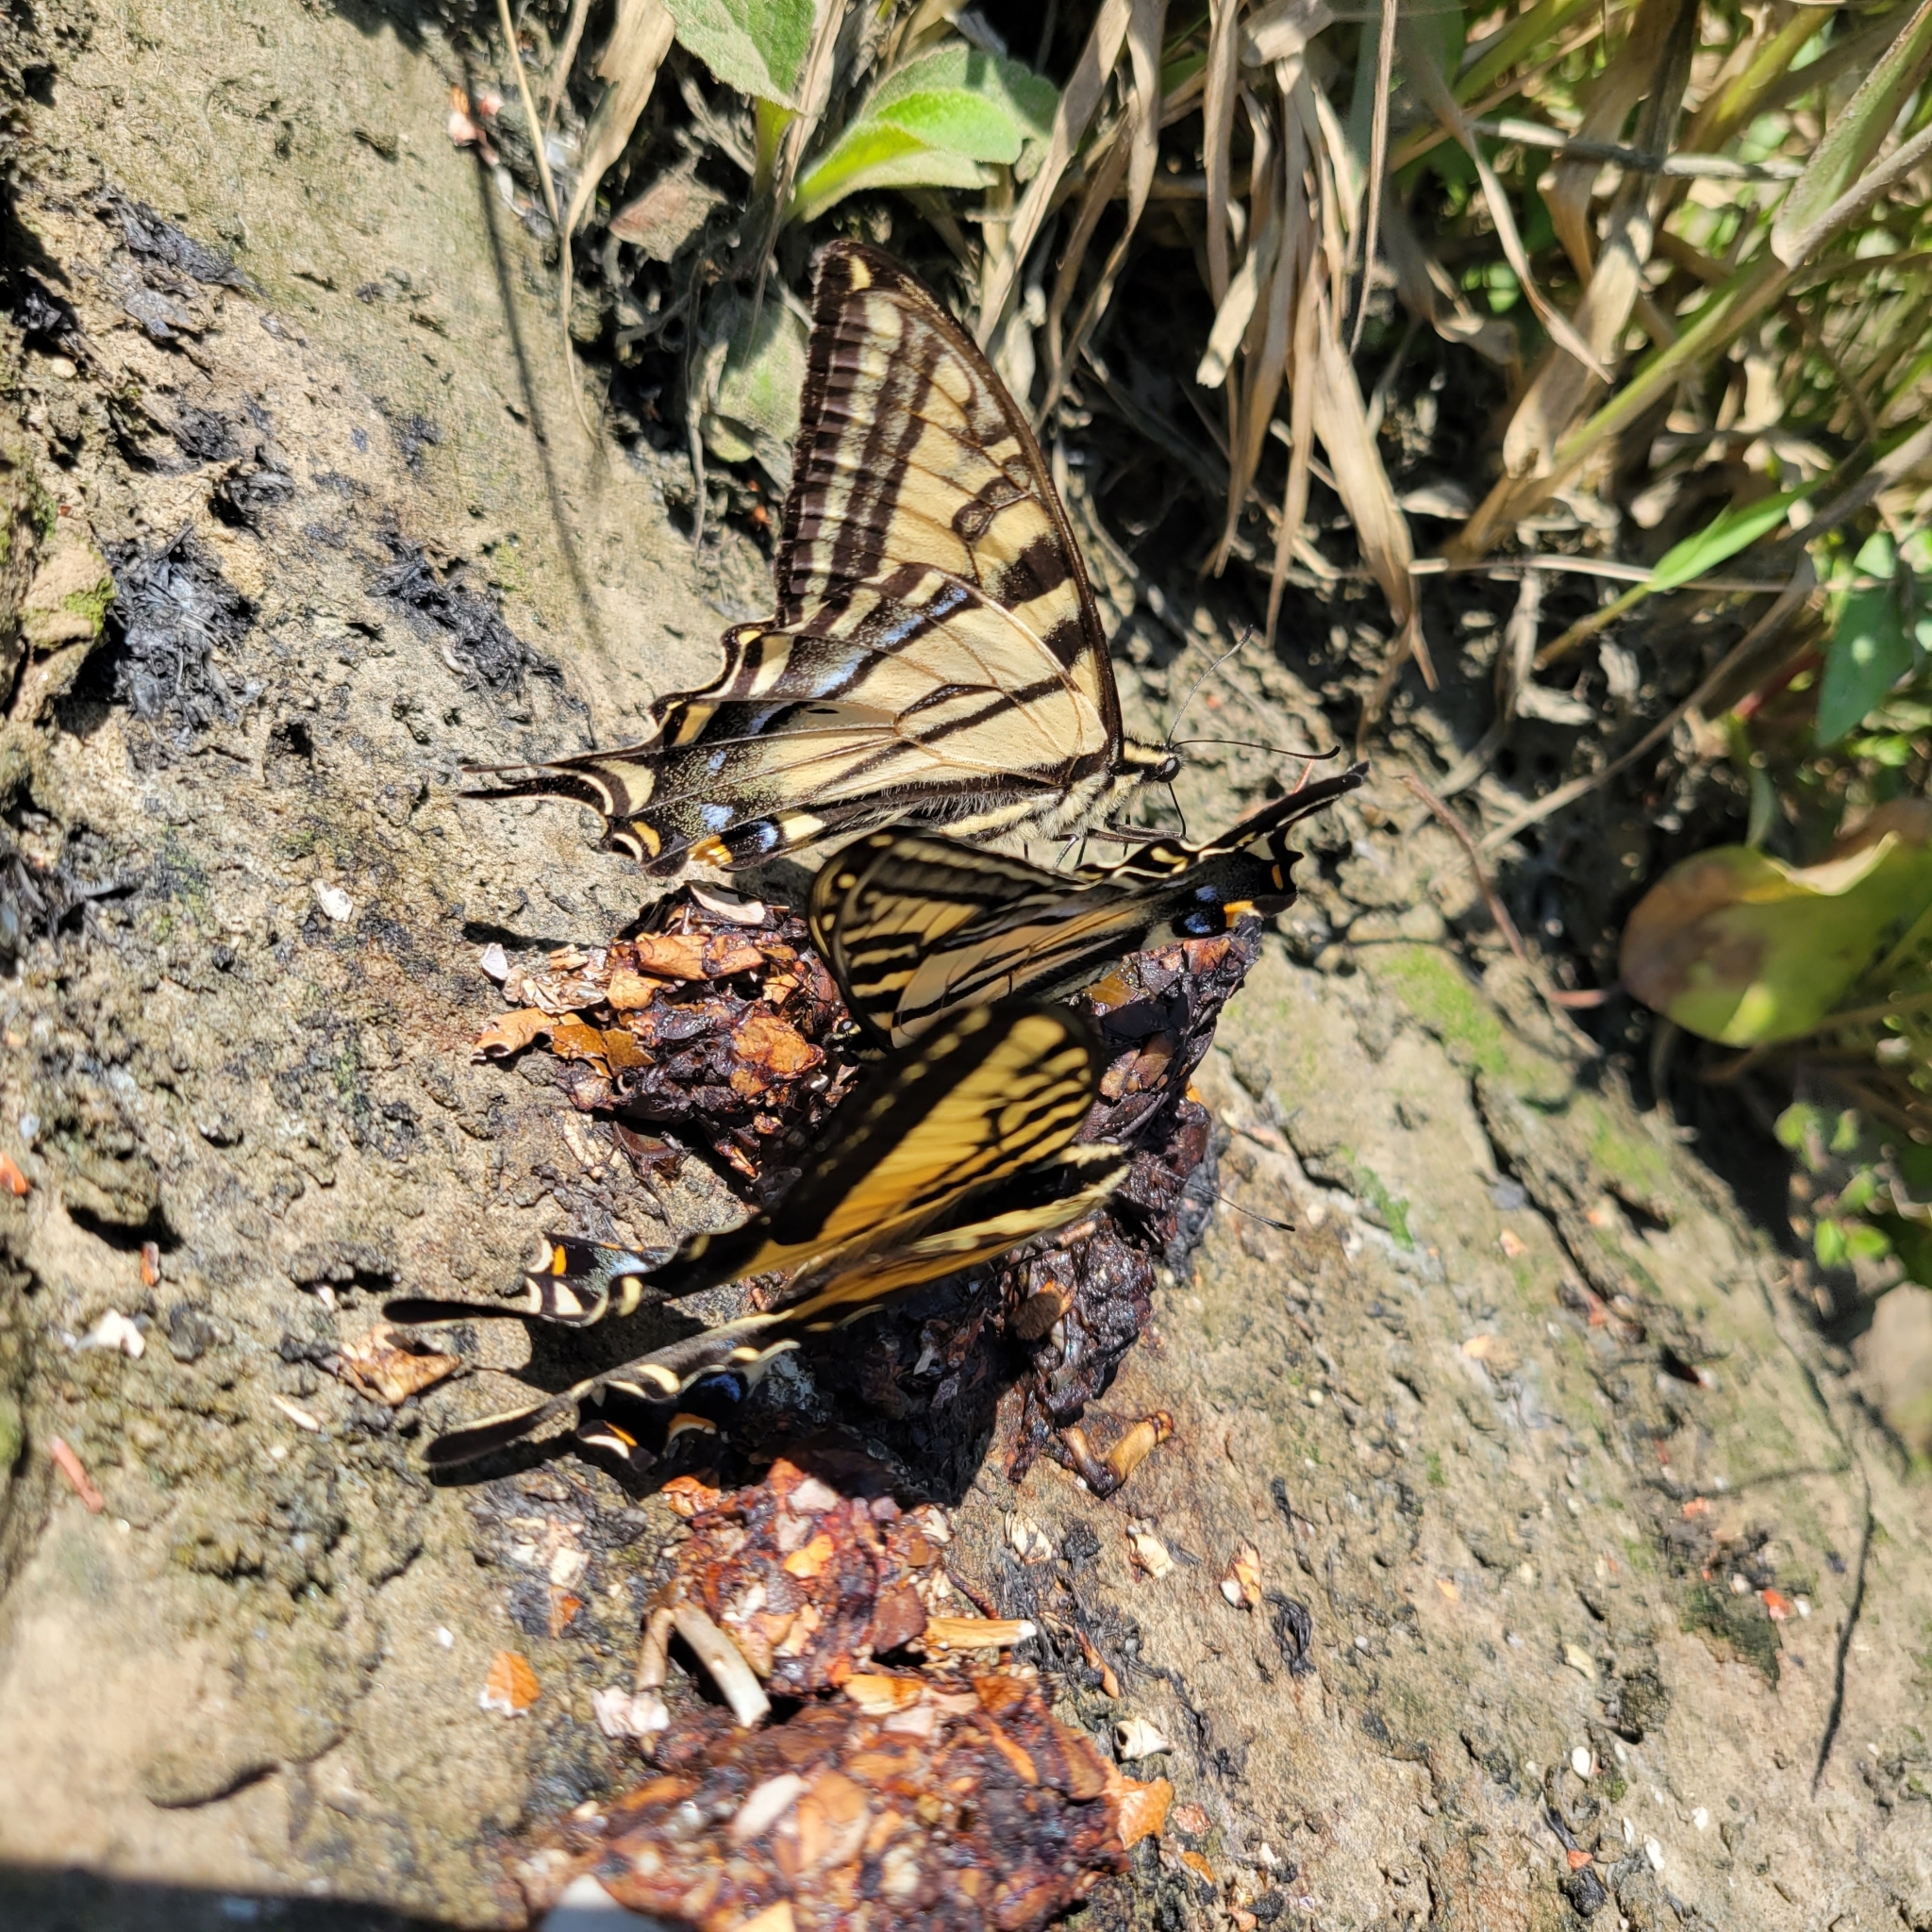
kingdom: Animalia
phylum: Arthropoda
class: Insecta
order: Lepidoptera
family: Papilionidae
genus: Papilio
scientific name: Papilio rutulus
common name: Western tiger swallowtail
